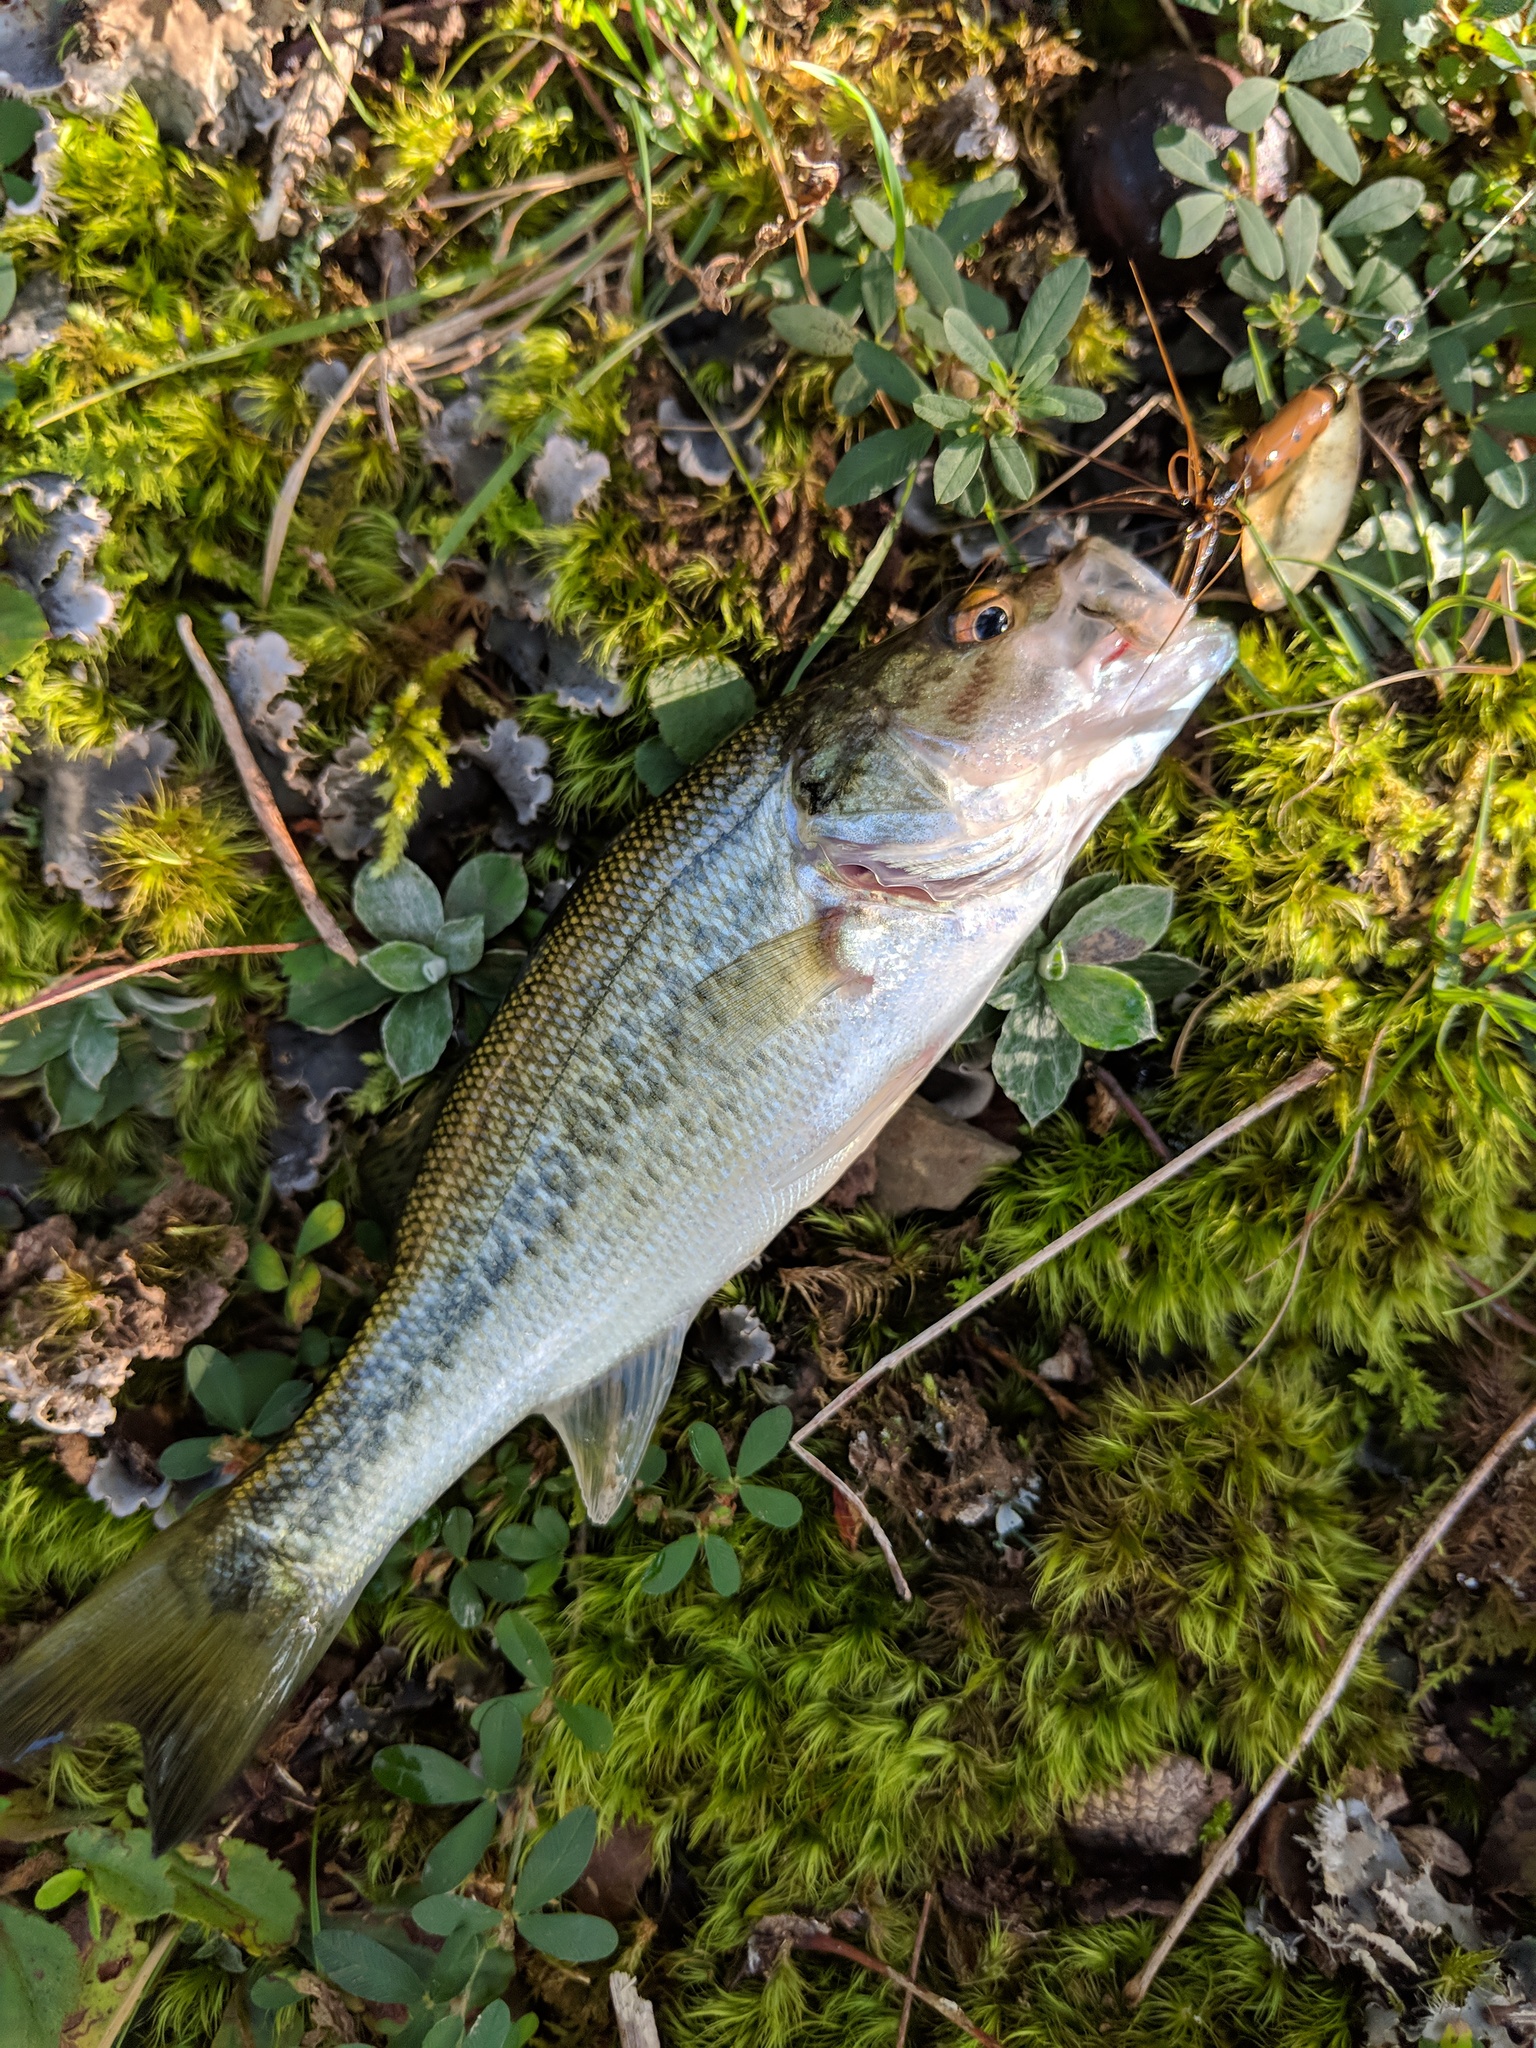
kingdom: Animalia
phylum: Chordata
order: Perciformes
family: Centrarchidae
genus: Micropterus
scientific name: Micropterus
